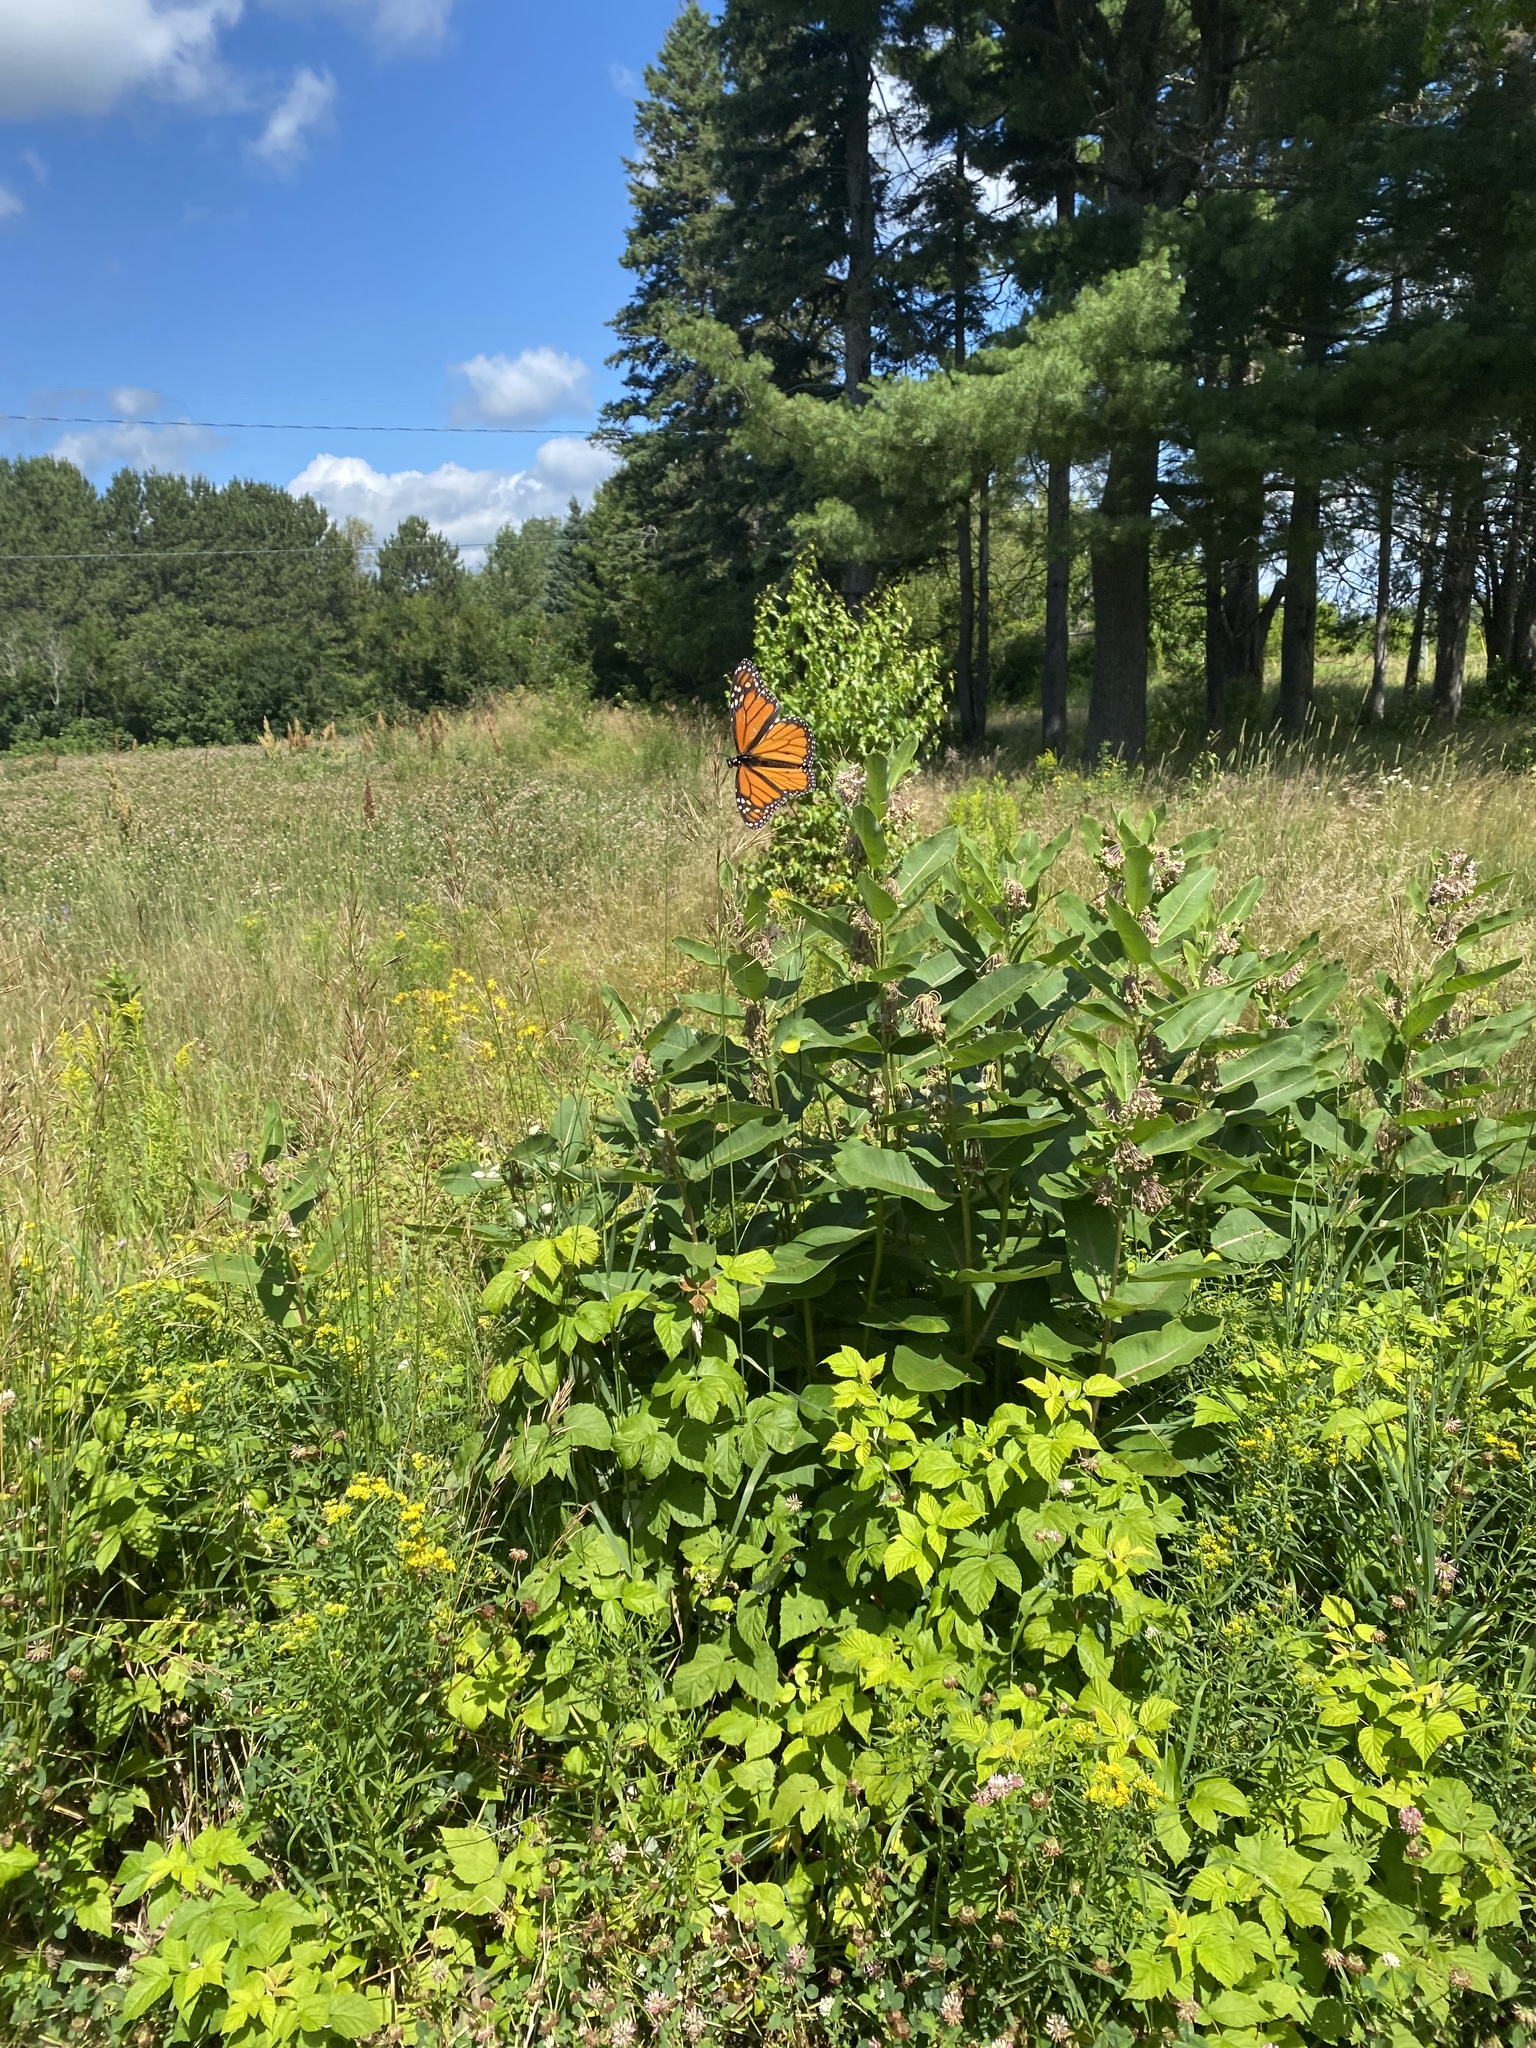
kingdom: Animalia
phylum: Arthropoda
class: Insecta
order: Lepidoptera
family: Nymphalidae
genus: Danaus
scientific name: Danaus plexippus
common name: Monarch
